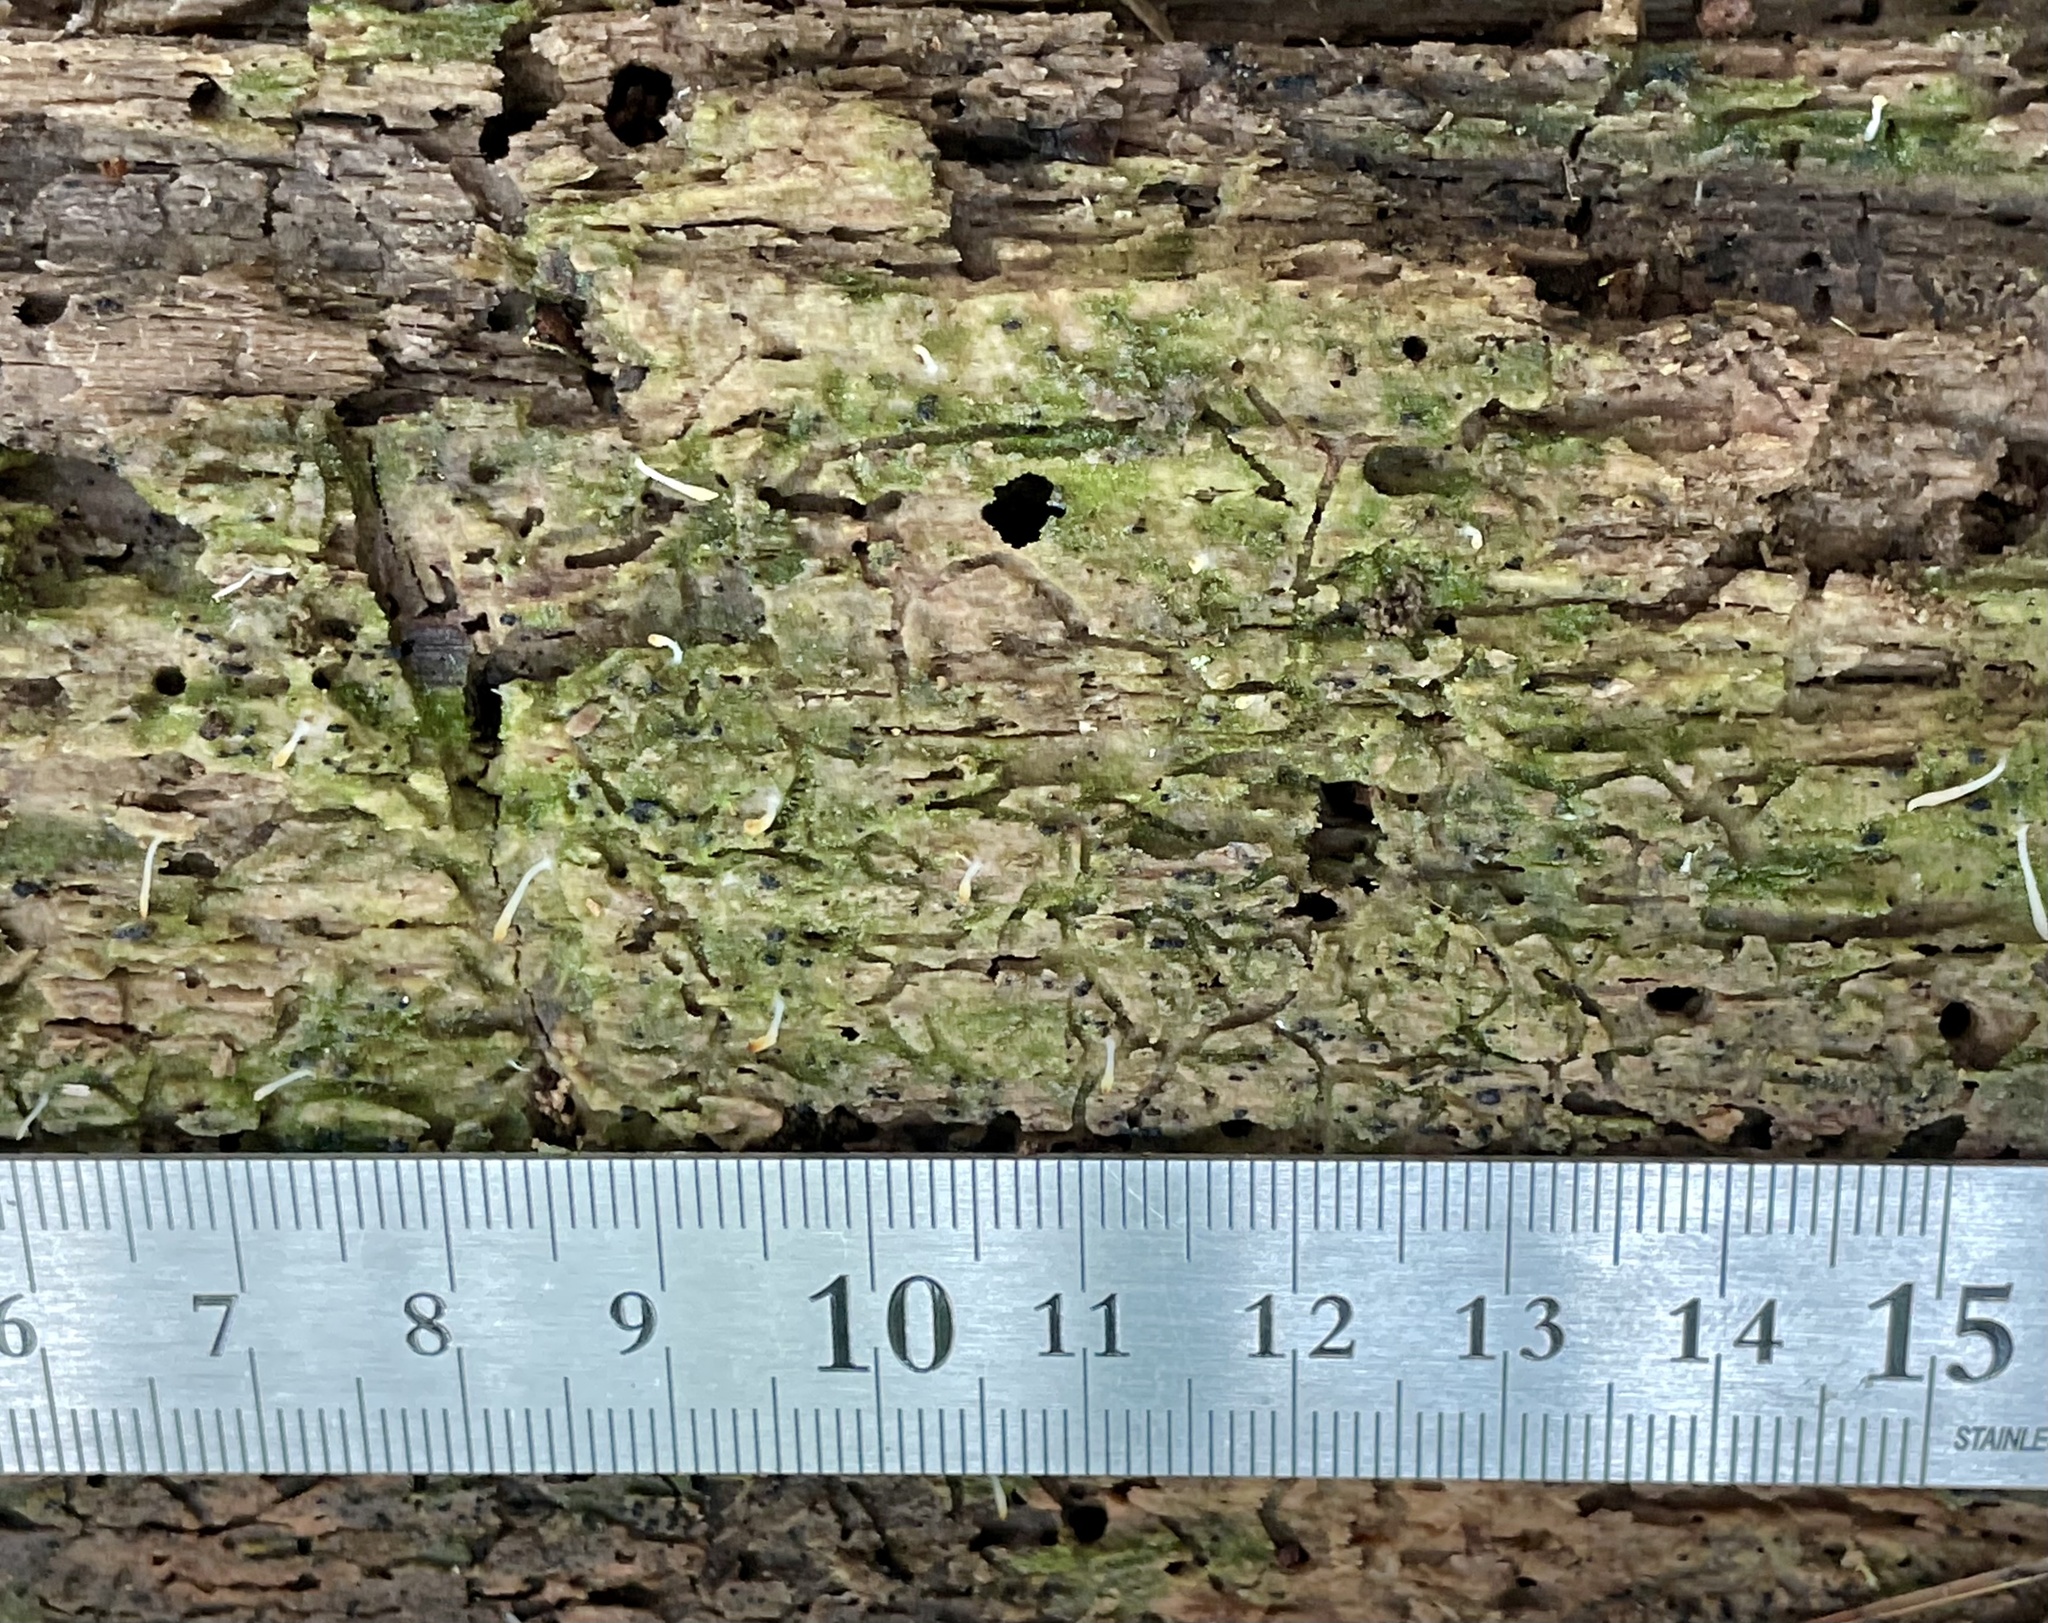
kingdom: Fungi
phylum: Basidiomycota
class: Agaricomycetes
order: Cantharellales
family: Hydnaceae
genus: Multiclavula
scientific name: Multiclavula mucida
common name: White green-algae coral
